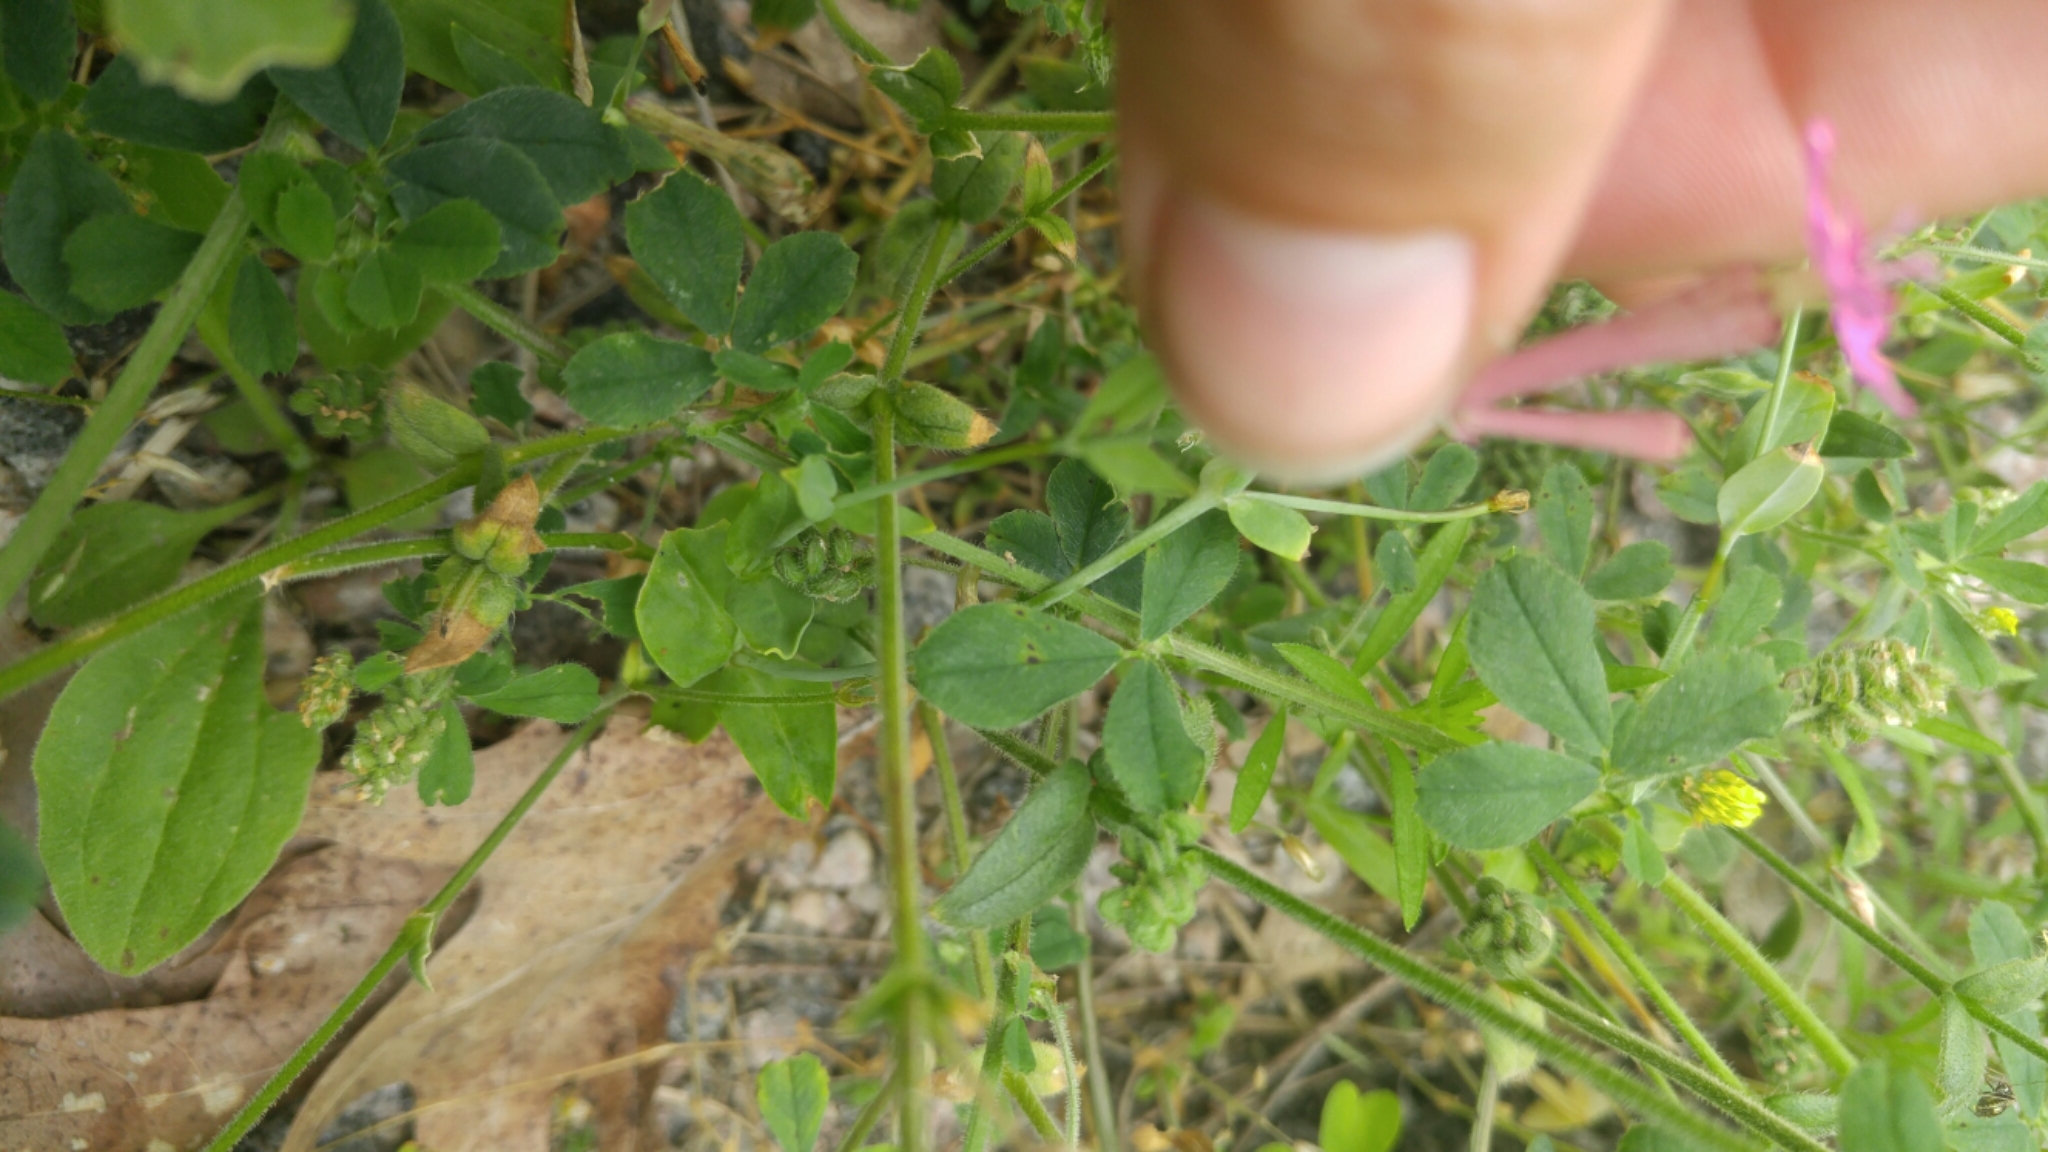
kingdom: Plantae
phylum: Tracheophyta
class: Magnoliopsida
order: Caryophyllales
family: Caryophyllaceae
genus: Atocion
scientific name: Atocion armeria
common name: Sweet william catchfly
